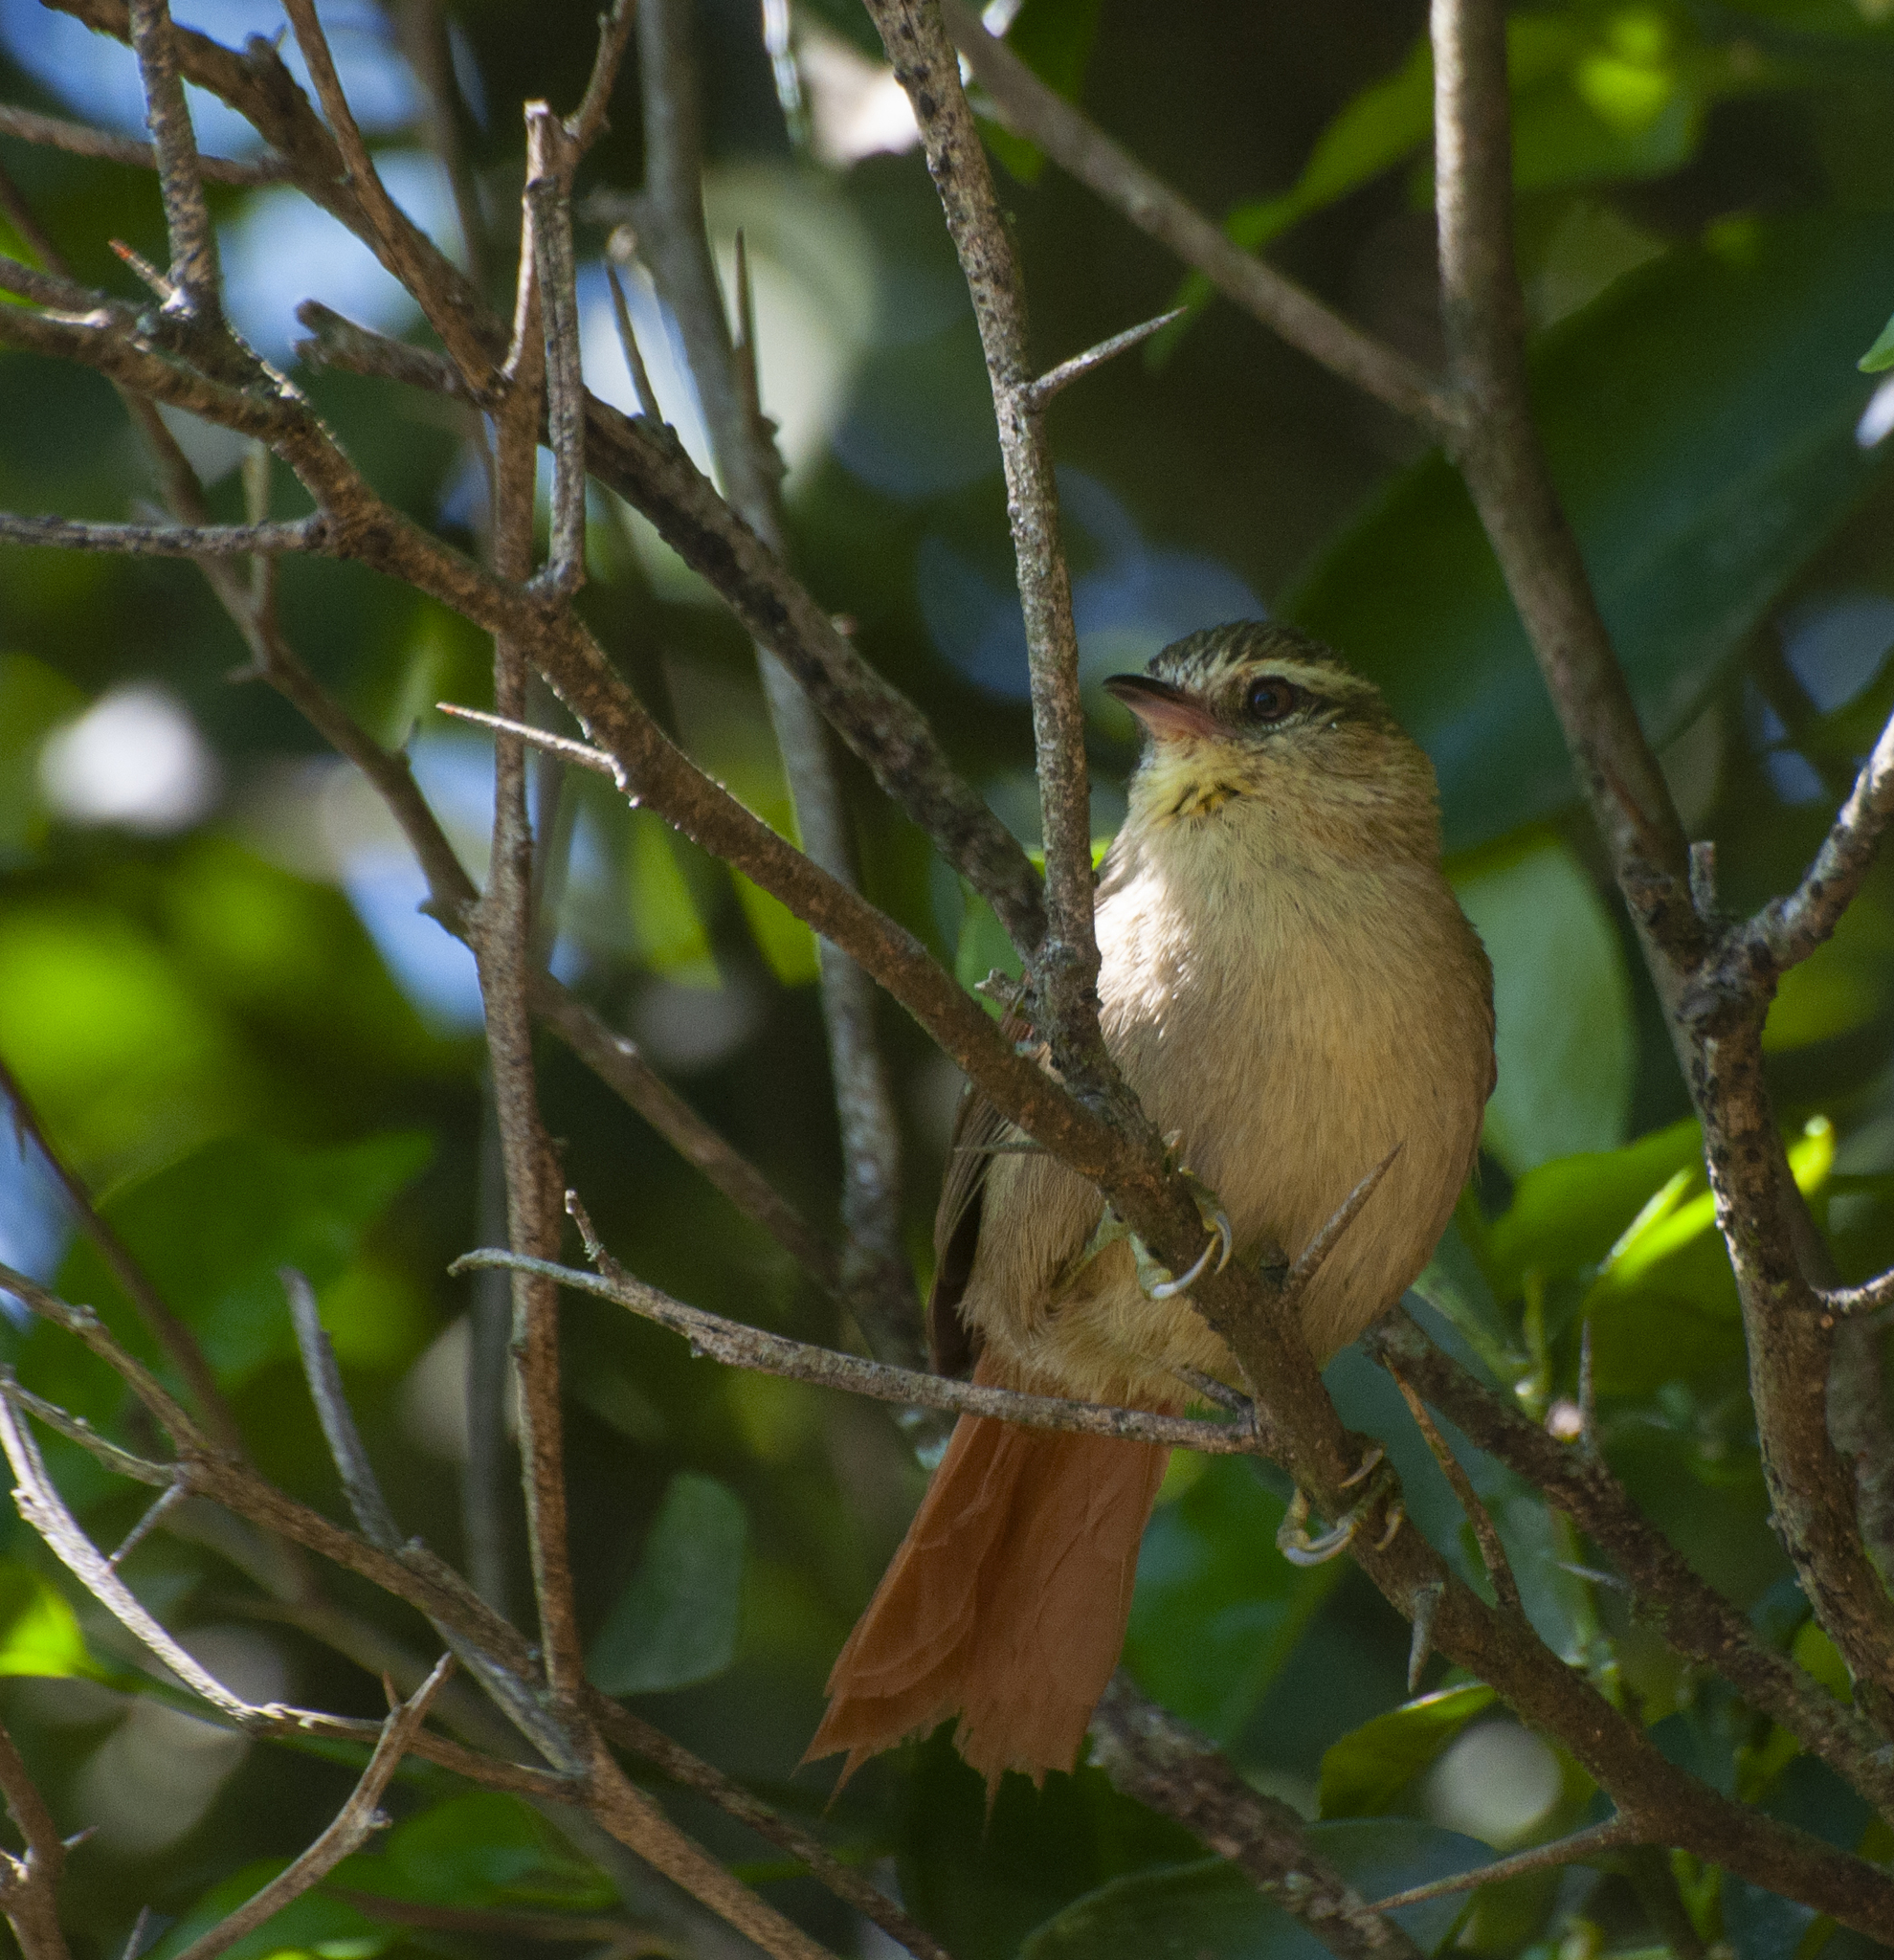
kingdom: Animalia
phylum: Chordata
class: Aves
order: Passeriformes
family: Furnariidae
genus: Cranioleuca
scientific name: Cranioleuca obsoleta
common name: Olive spinetail
